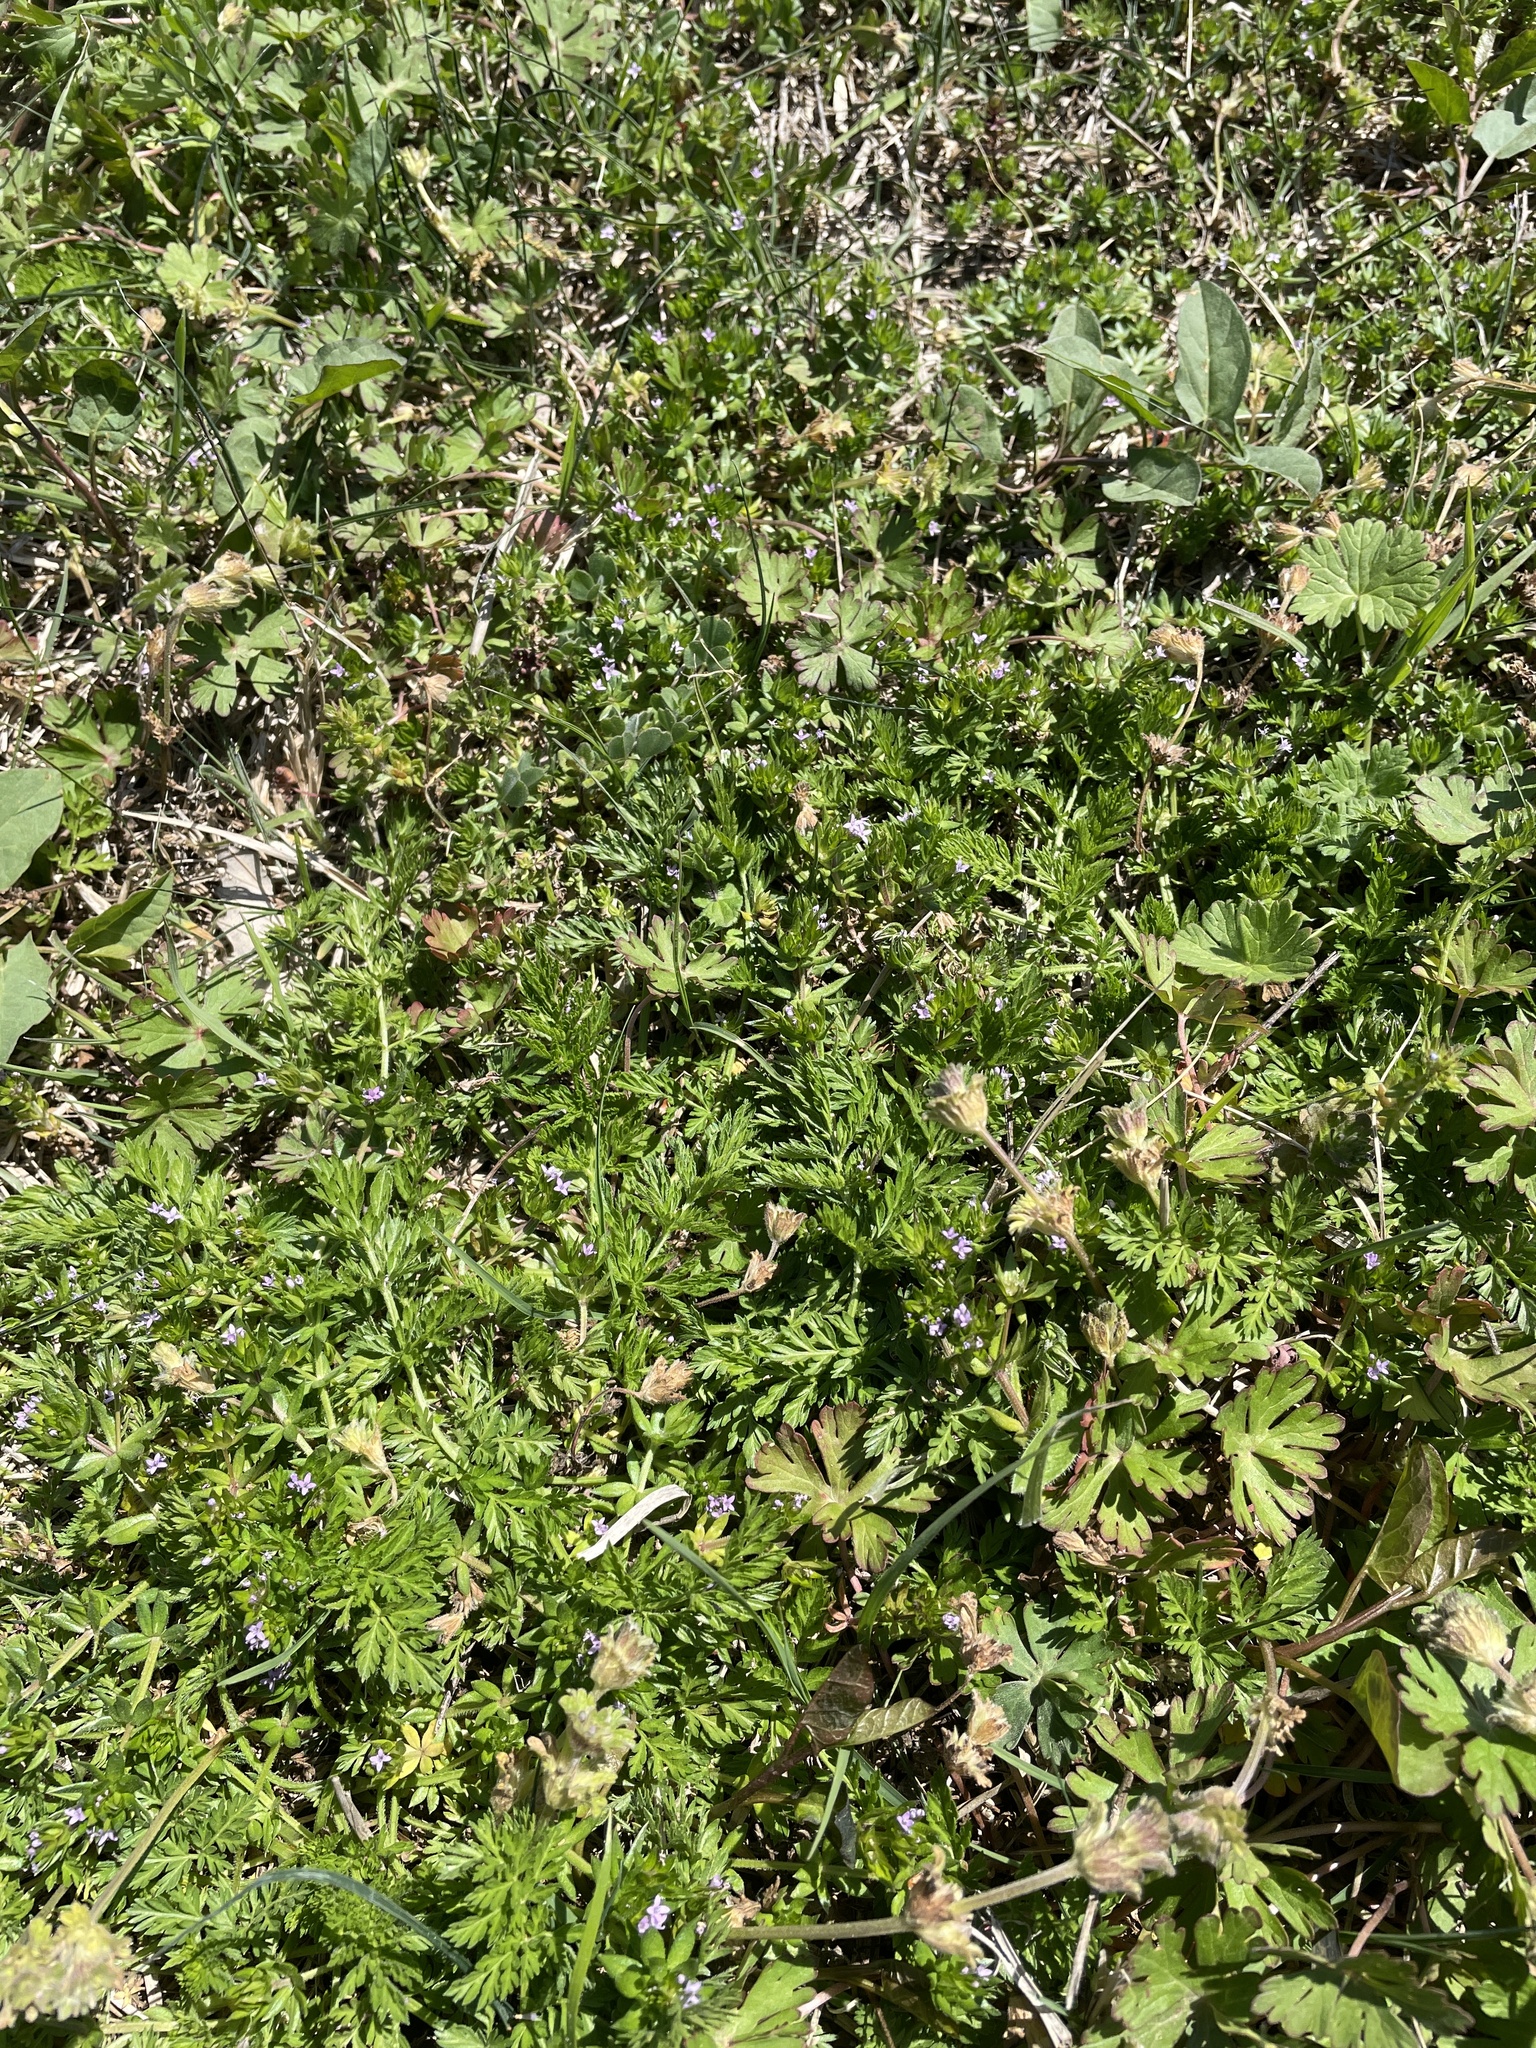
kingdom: Plantae
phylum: Tracheophyta
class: Magnoliopsida
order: Gentianales
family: Rubiaceae
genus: Sherardia
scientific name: Sherardia arvensis
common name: Field madder
